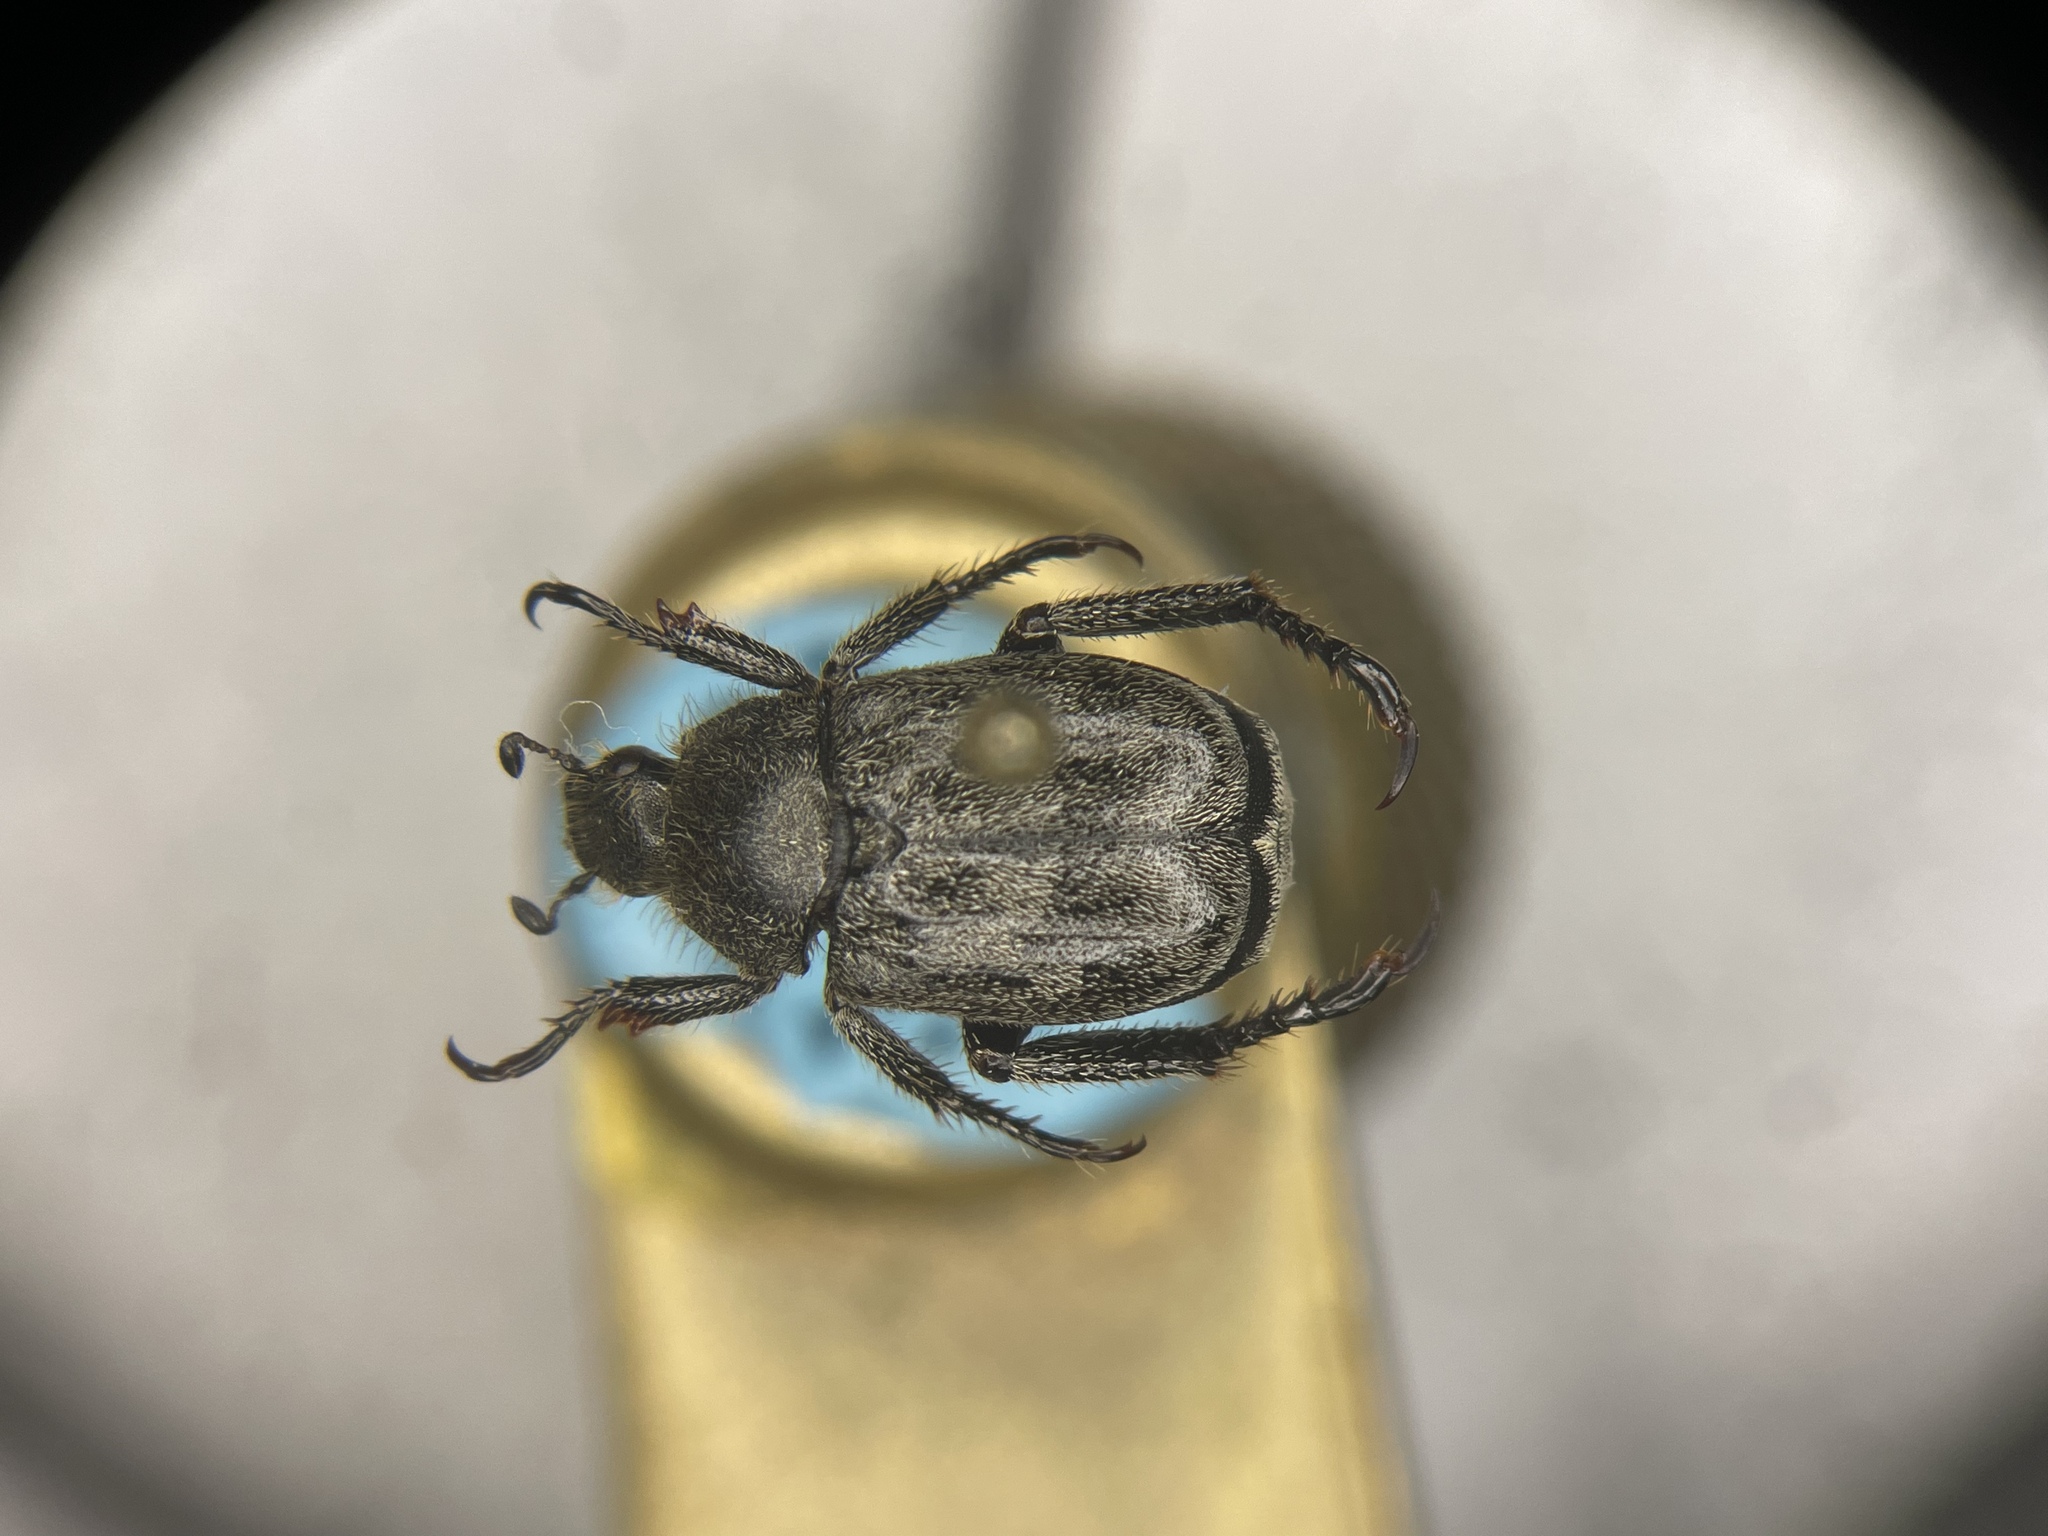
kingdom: Animalia
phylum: Arthropoda
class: Insecta
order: Coleoptera
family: Scarabaeidae
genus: Hoplia
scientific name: Hoplia trifasciata
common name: Three-lined hoplia
